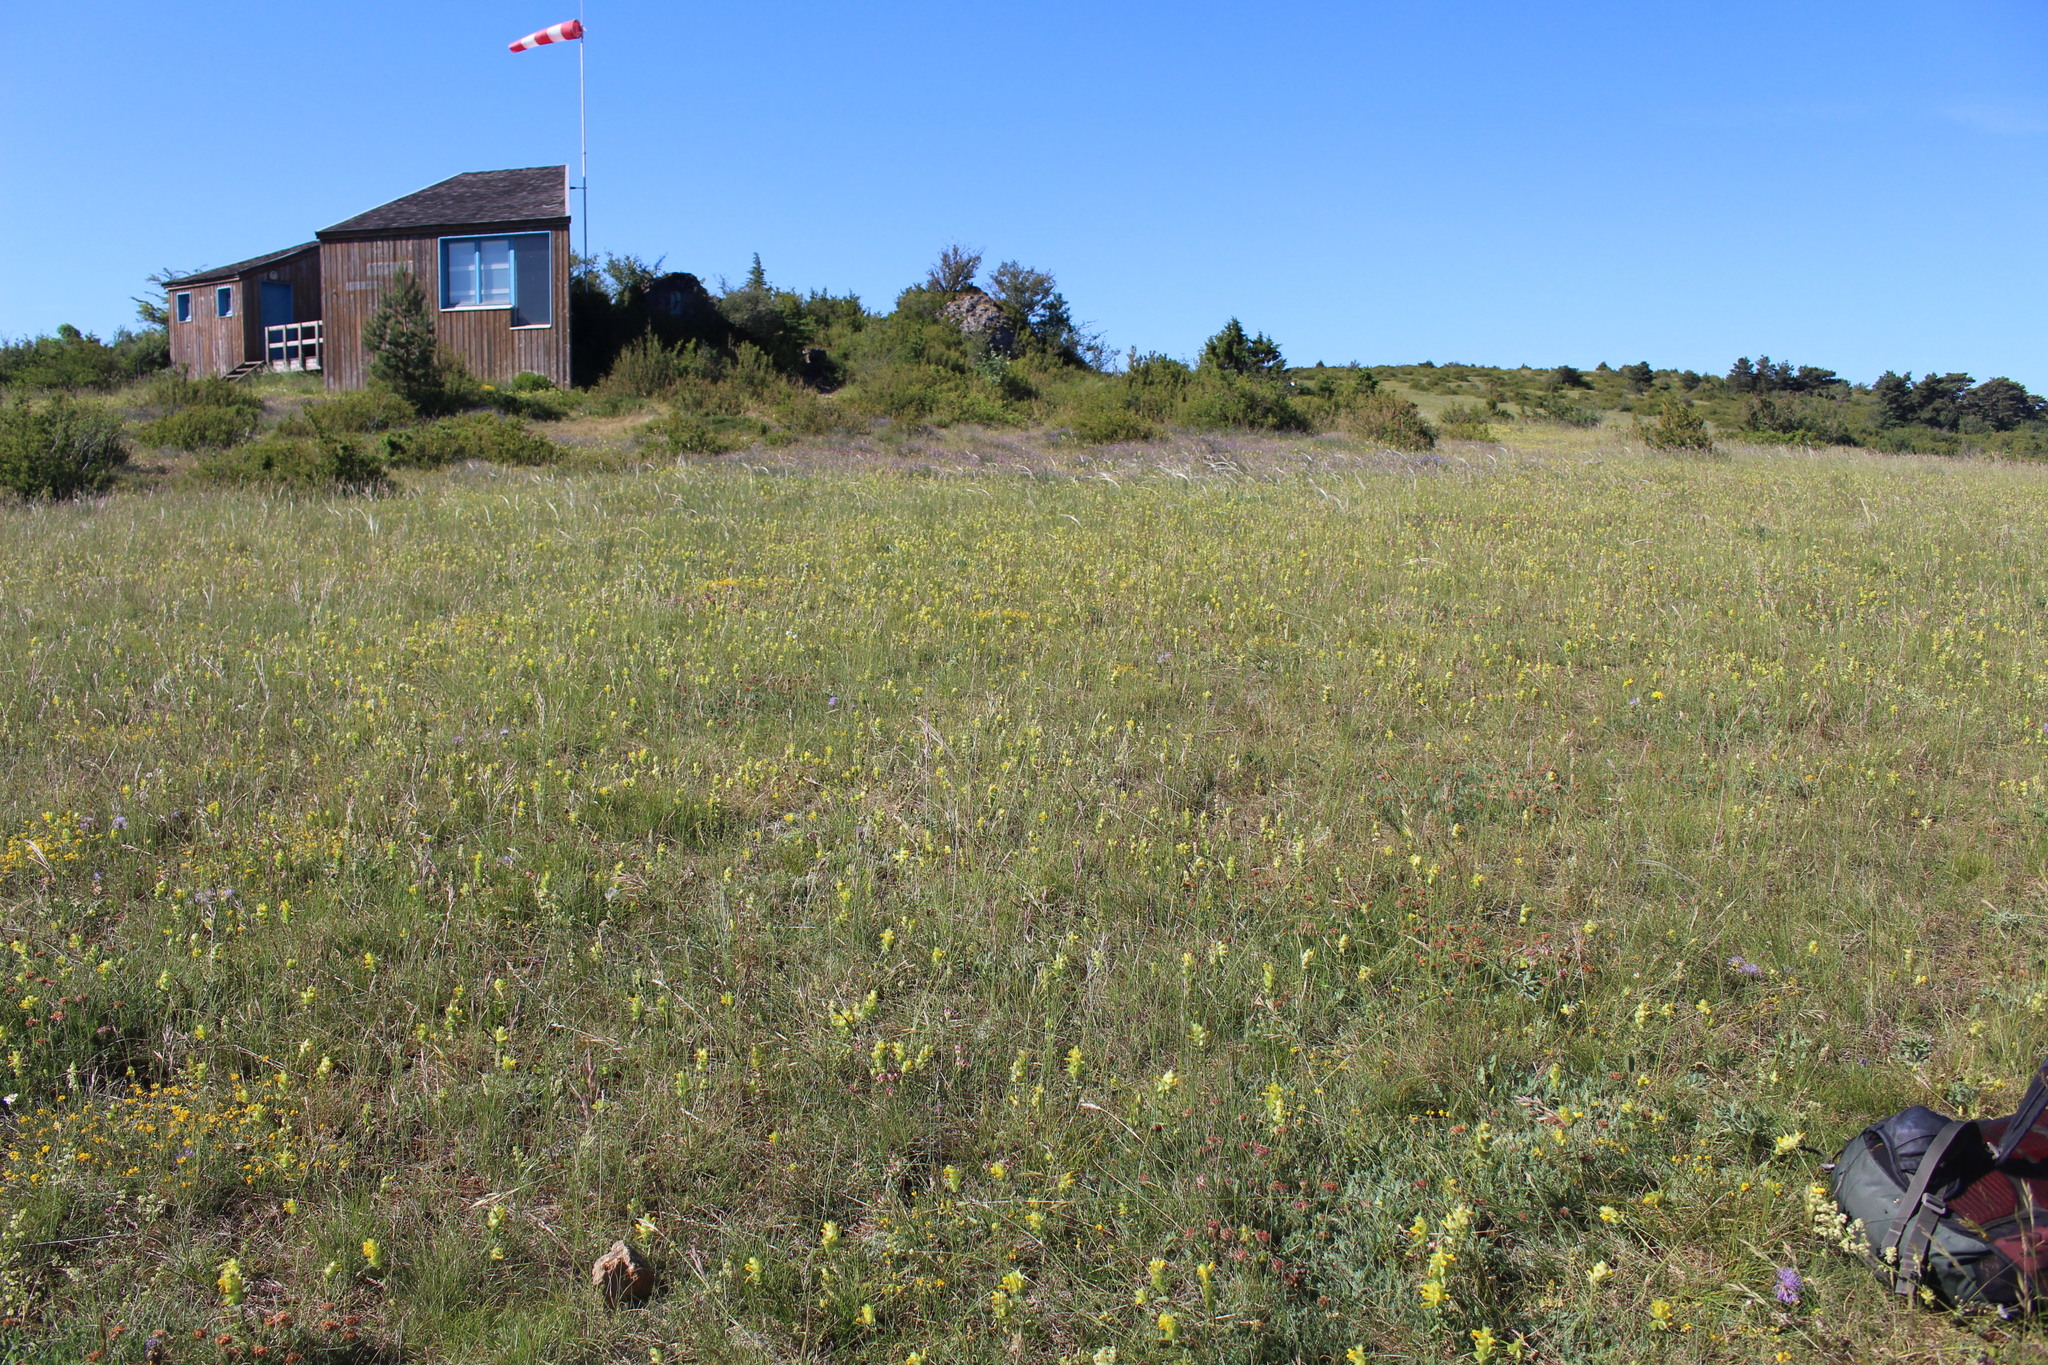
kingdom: Plantae
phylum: Tracheophyta
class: Magnoliopsida
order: Lamiales
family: Lamiaceae
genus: Teucrium
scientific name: Teucrium rouyanum
